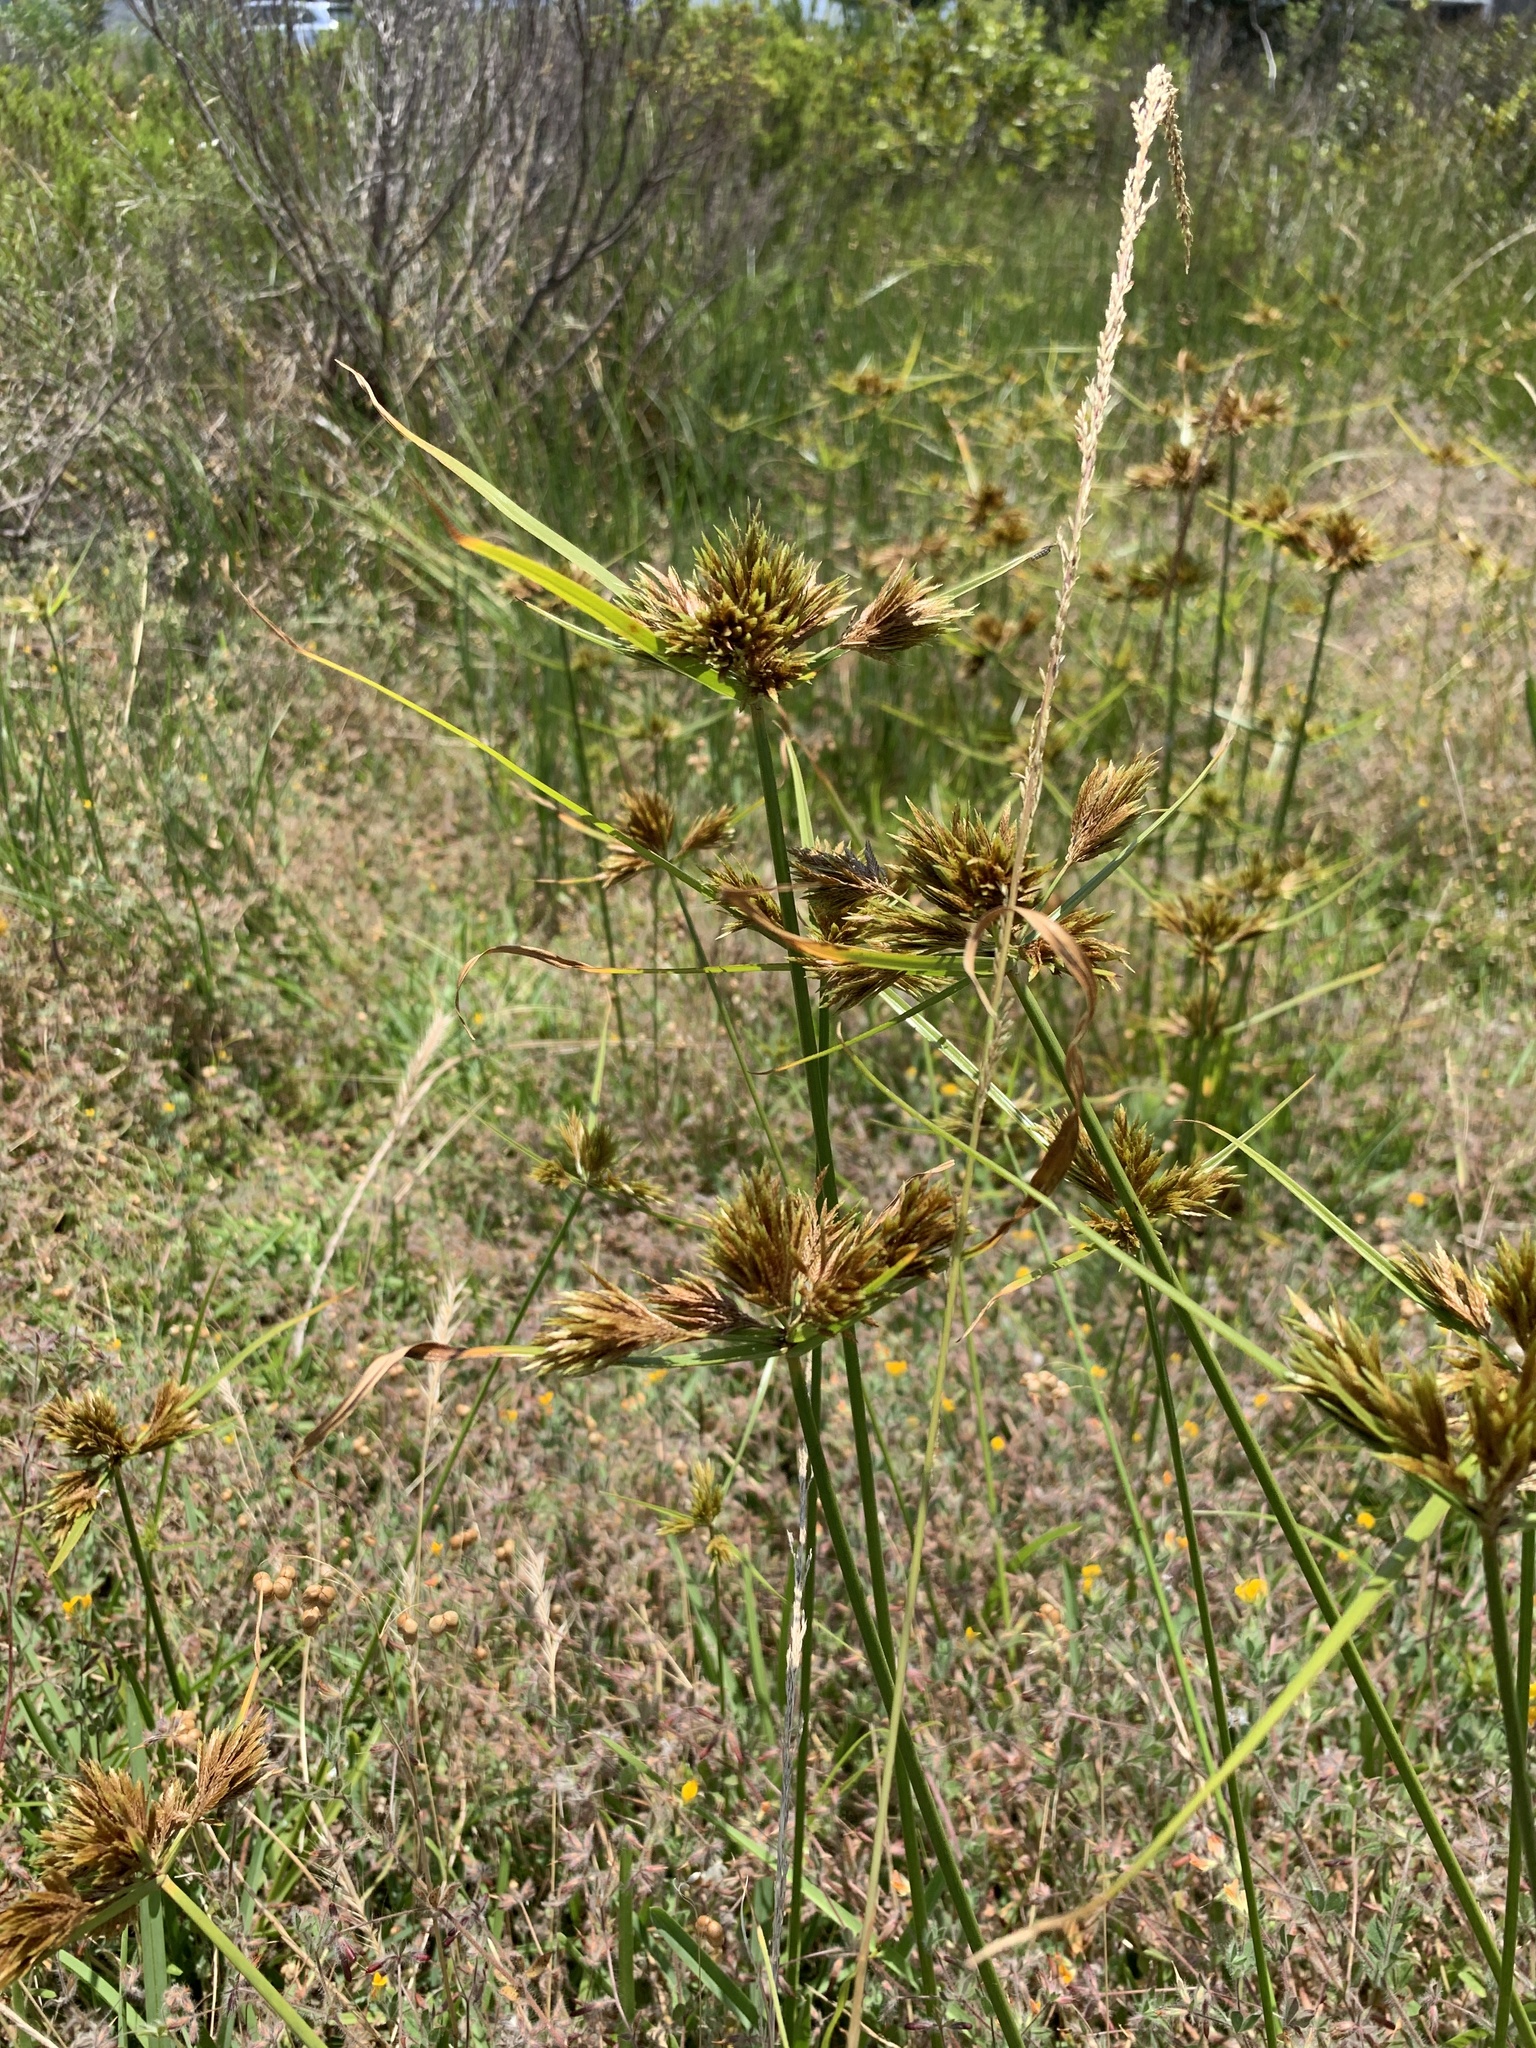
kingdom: Plantae
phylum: Tracheophyta
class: Liliopsida
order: Poales
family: Cyperaceae
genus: Cyperus
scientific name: Cyperus polystachyos
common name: Bunchy flat sedge
